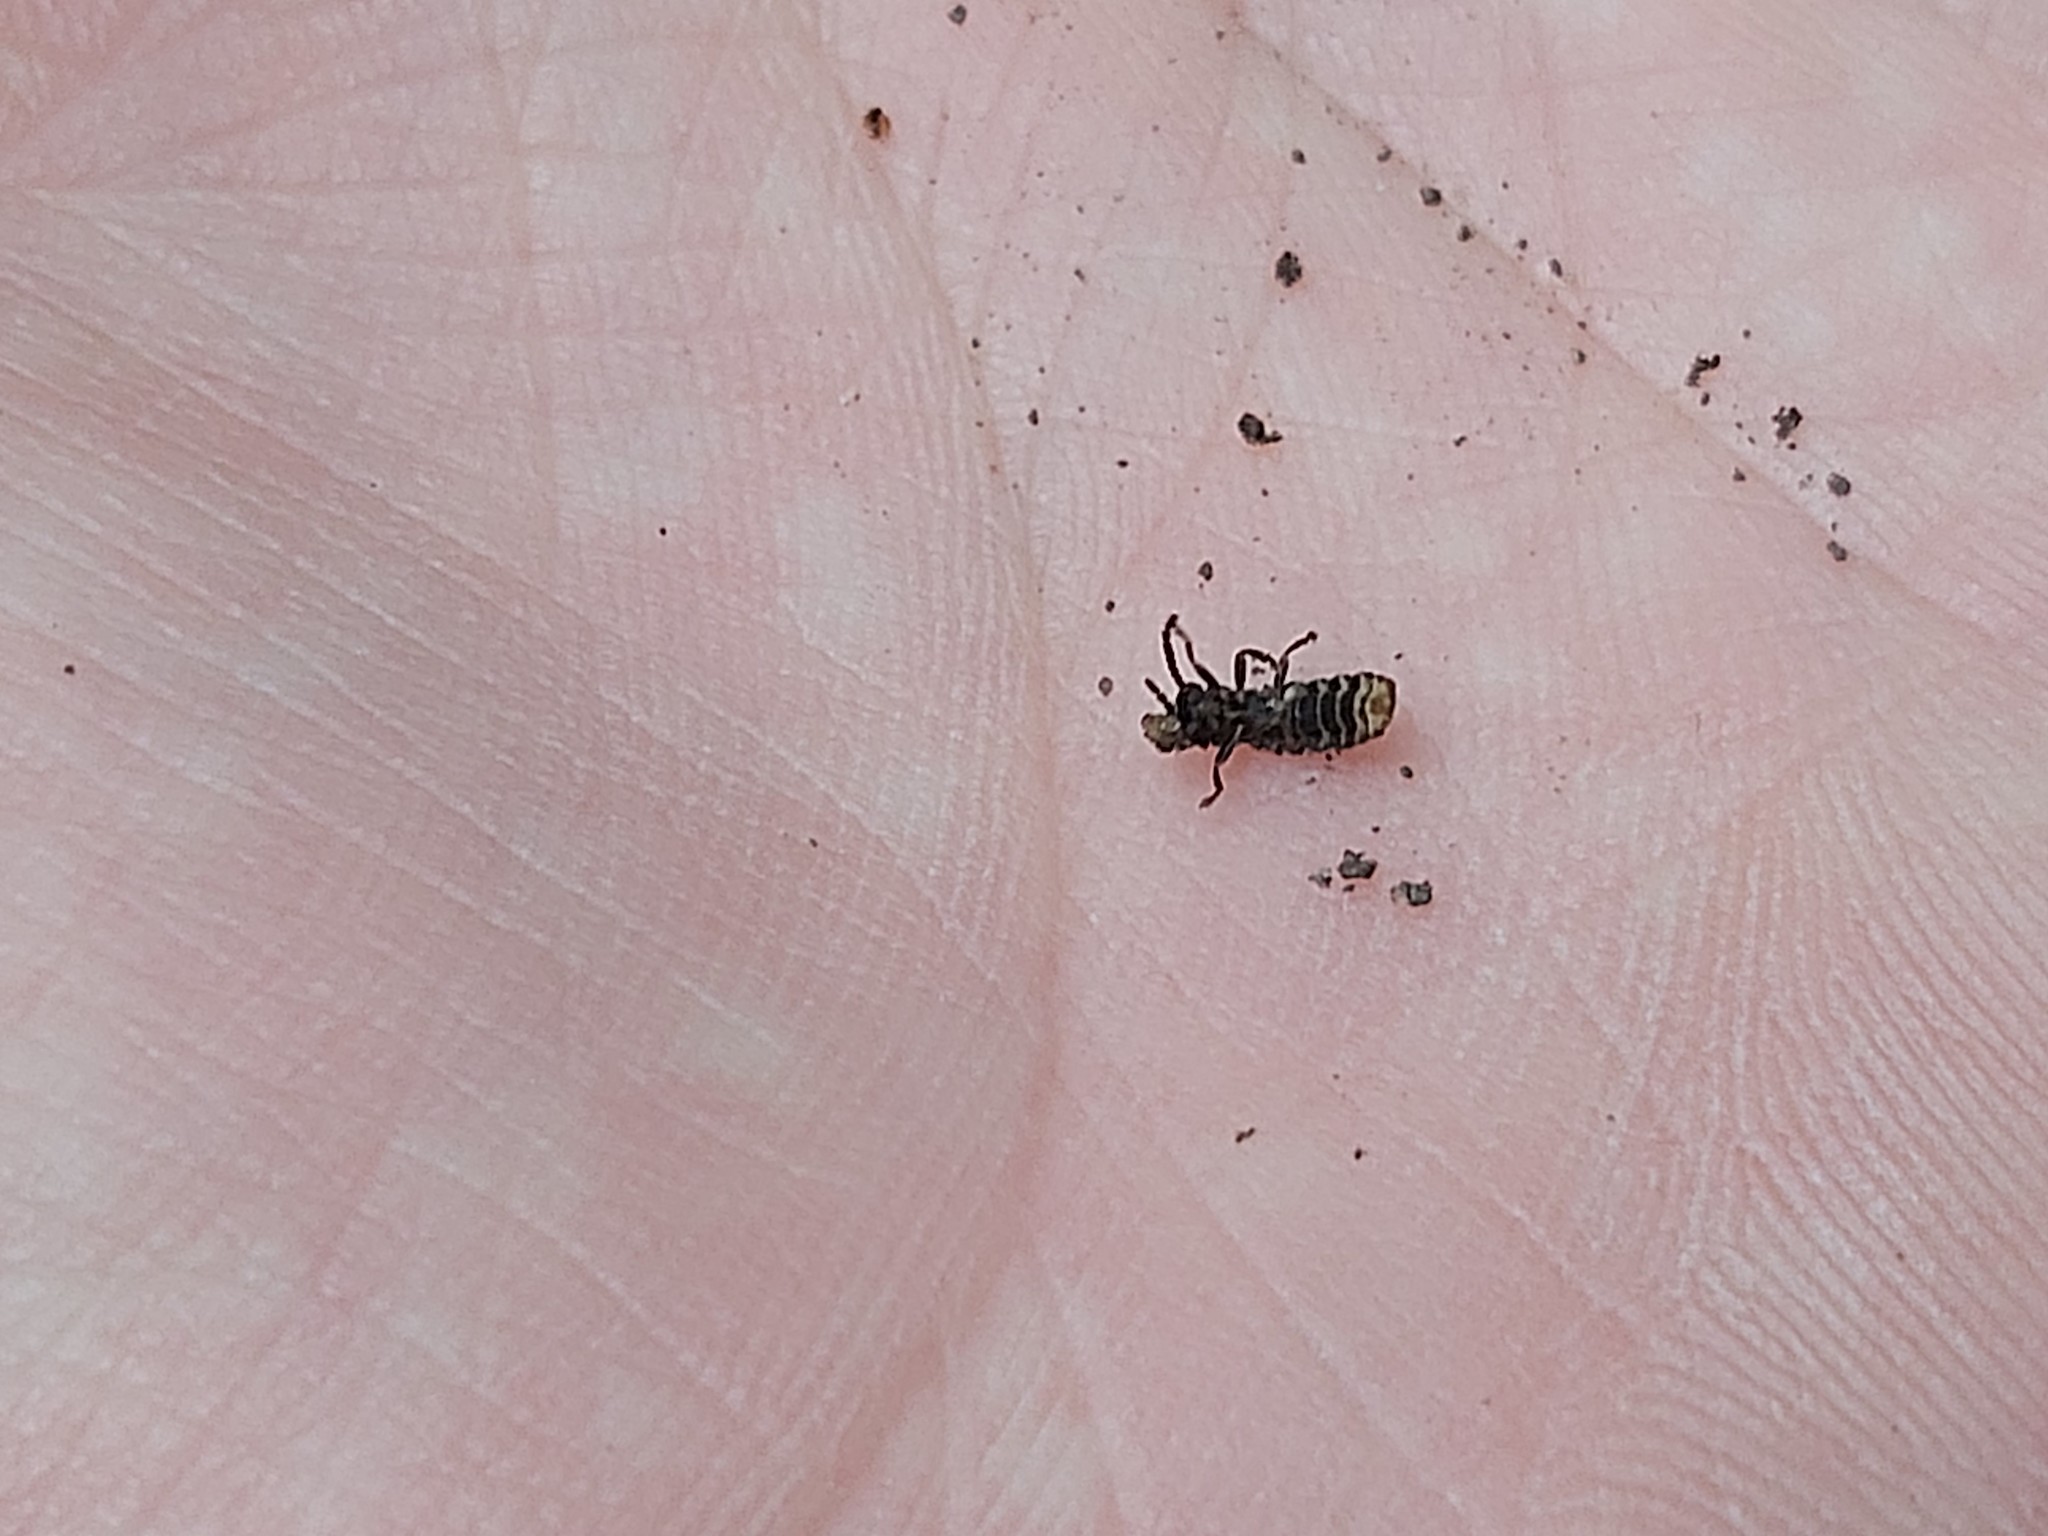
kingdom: Animalia
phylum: Arthropoda
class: Insecta
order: Coleoptera
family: Lampyridae
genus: Phosphaenus
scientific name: Phosphaenus hemipterus
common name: Short-winged firefly
